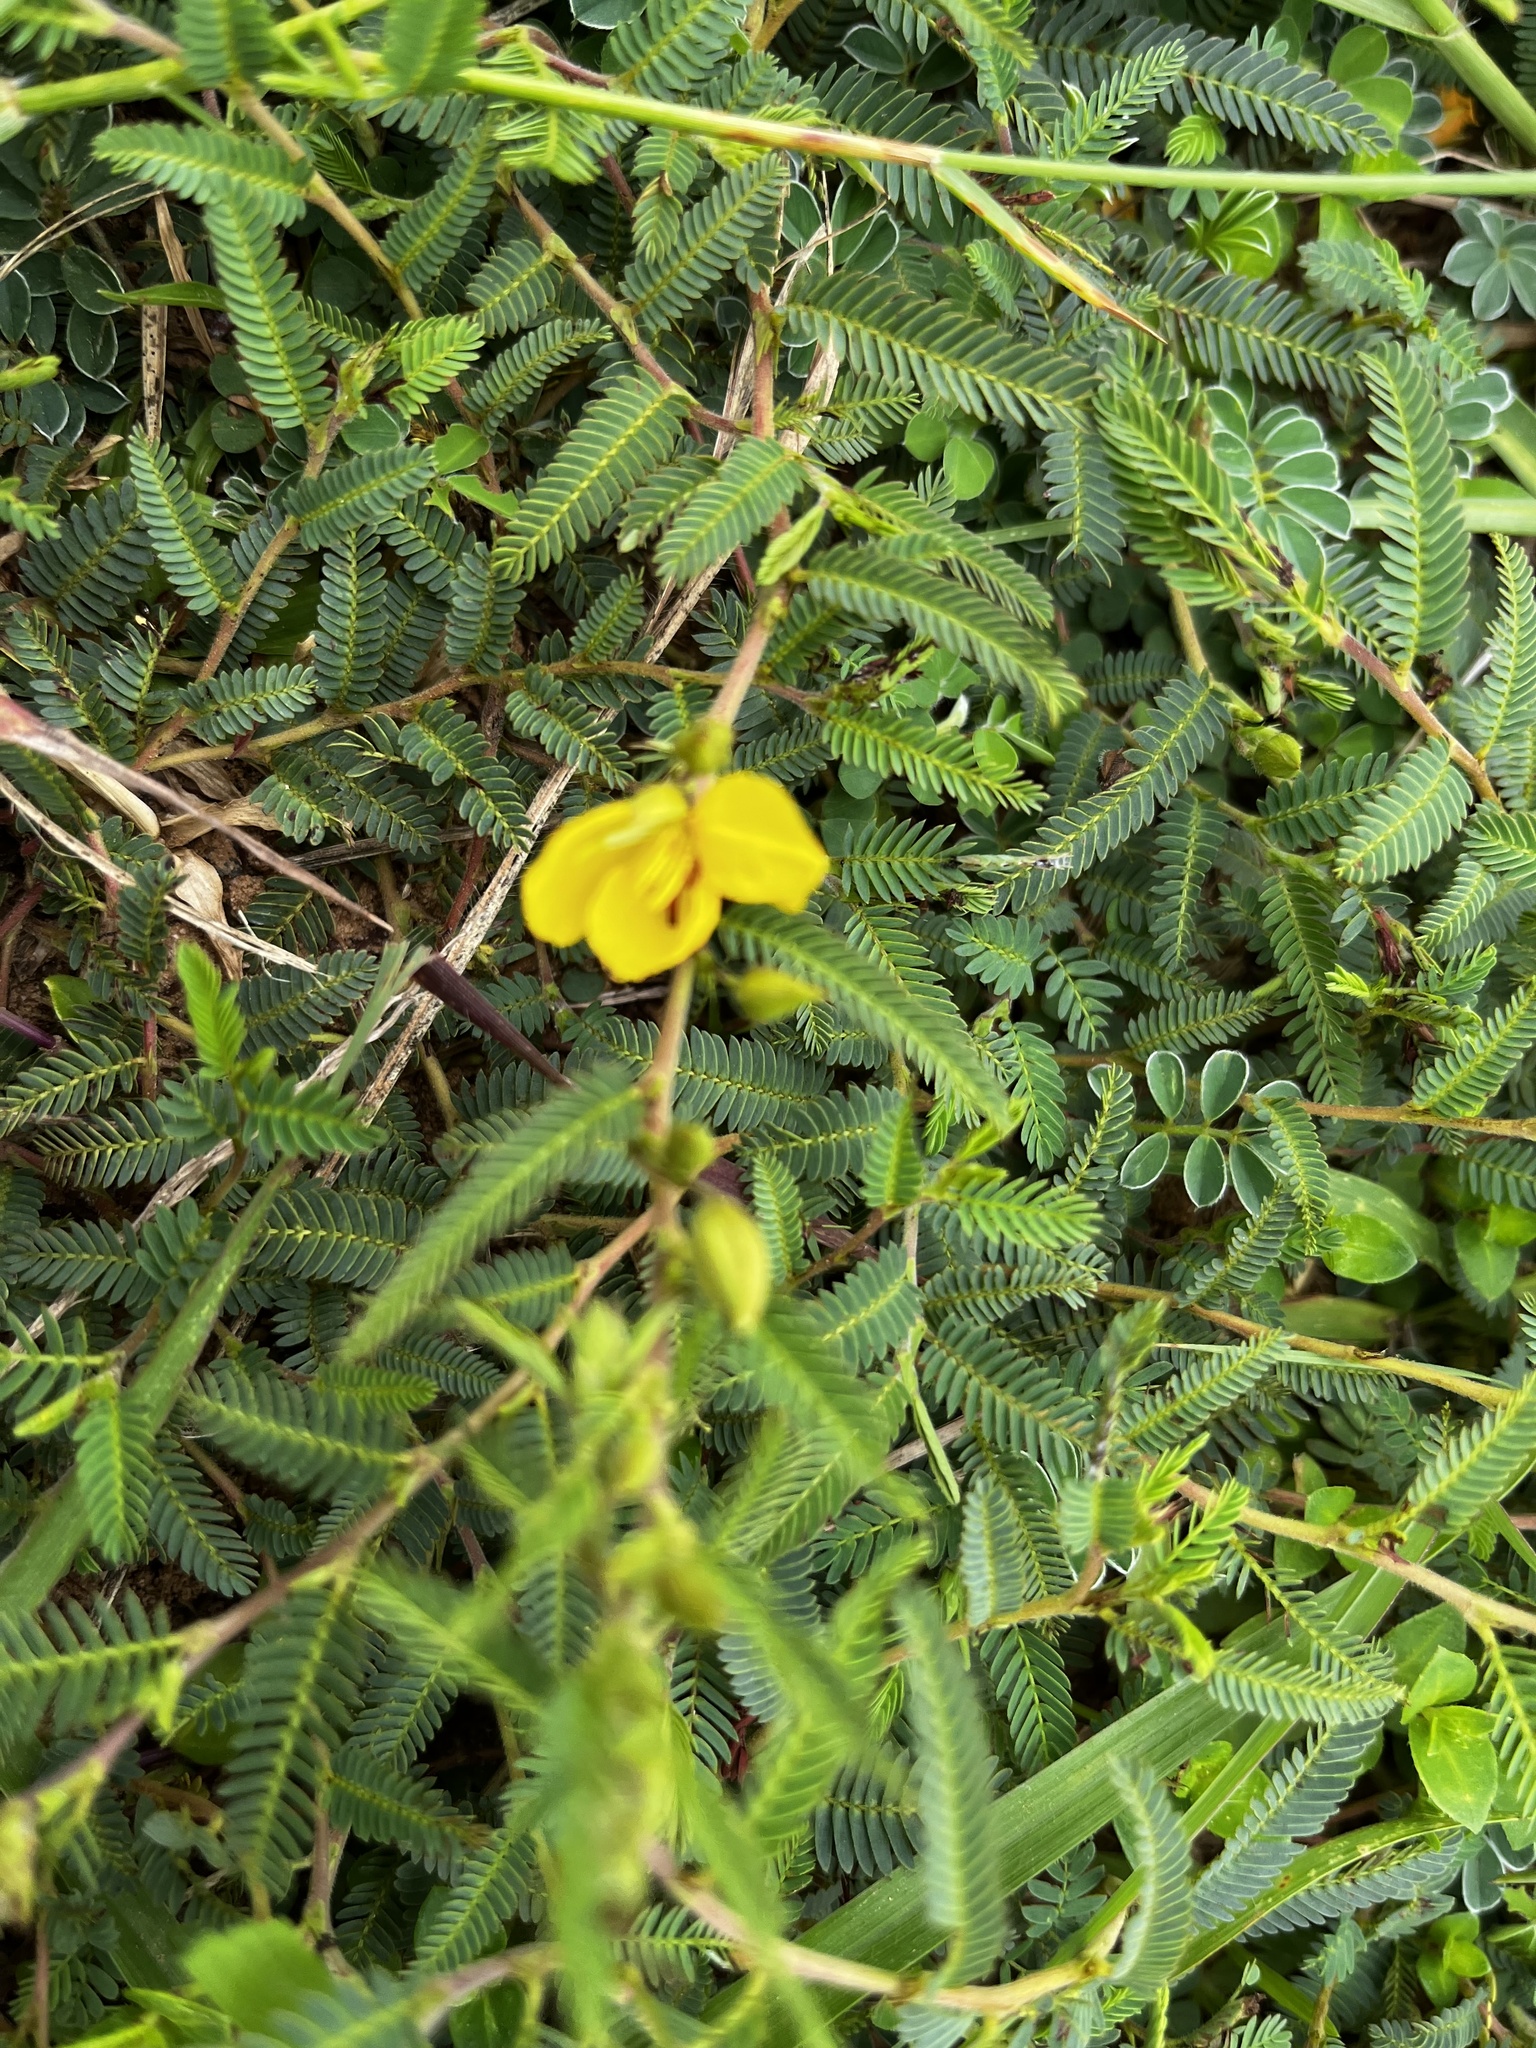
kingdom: Plantae
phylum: Tracheophyta
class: Magnoliopsida
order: Fabales
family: Fabaceae
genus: Chamaecrista
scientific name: Chamaecrista garambiensis
